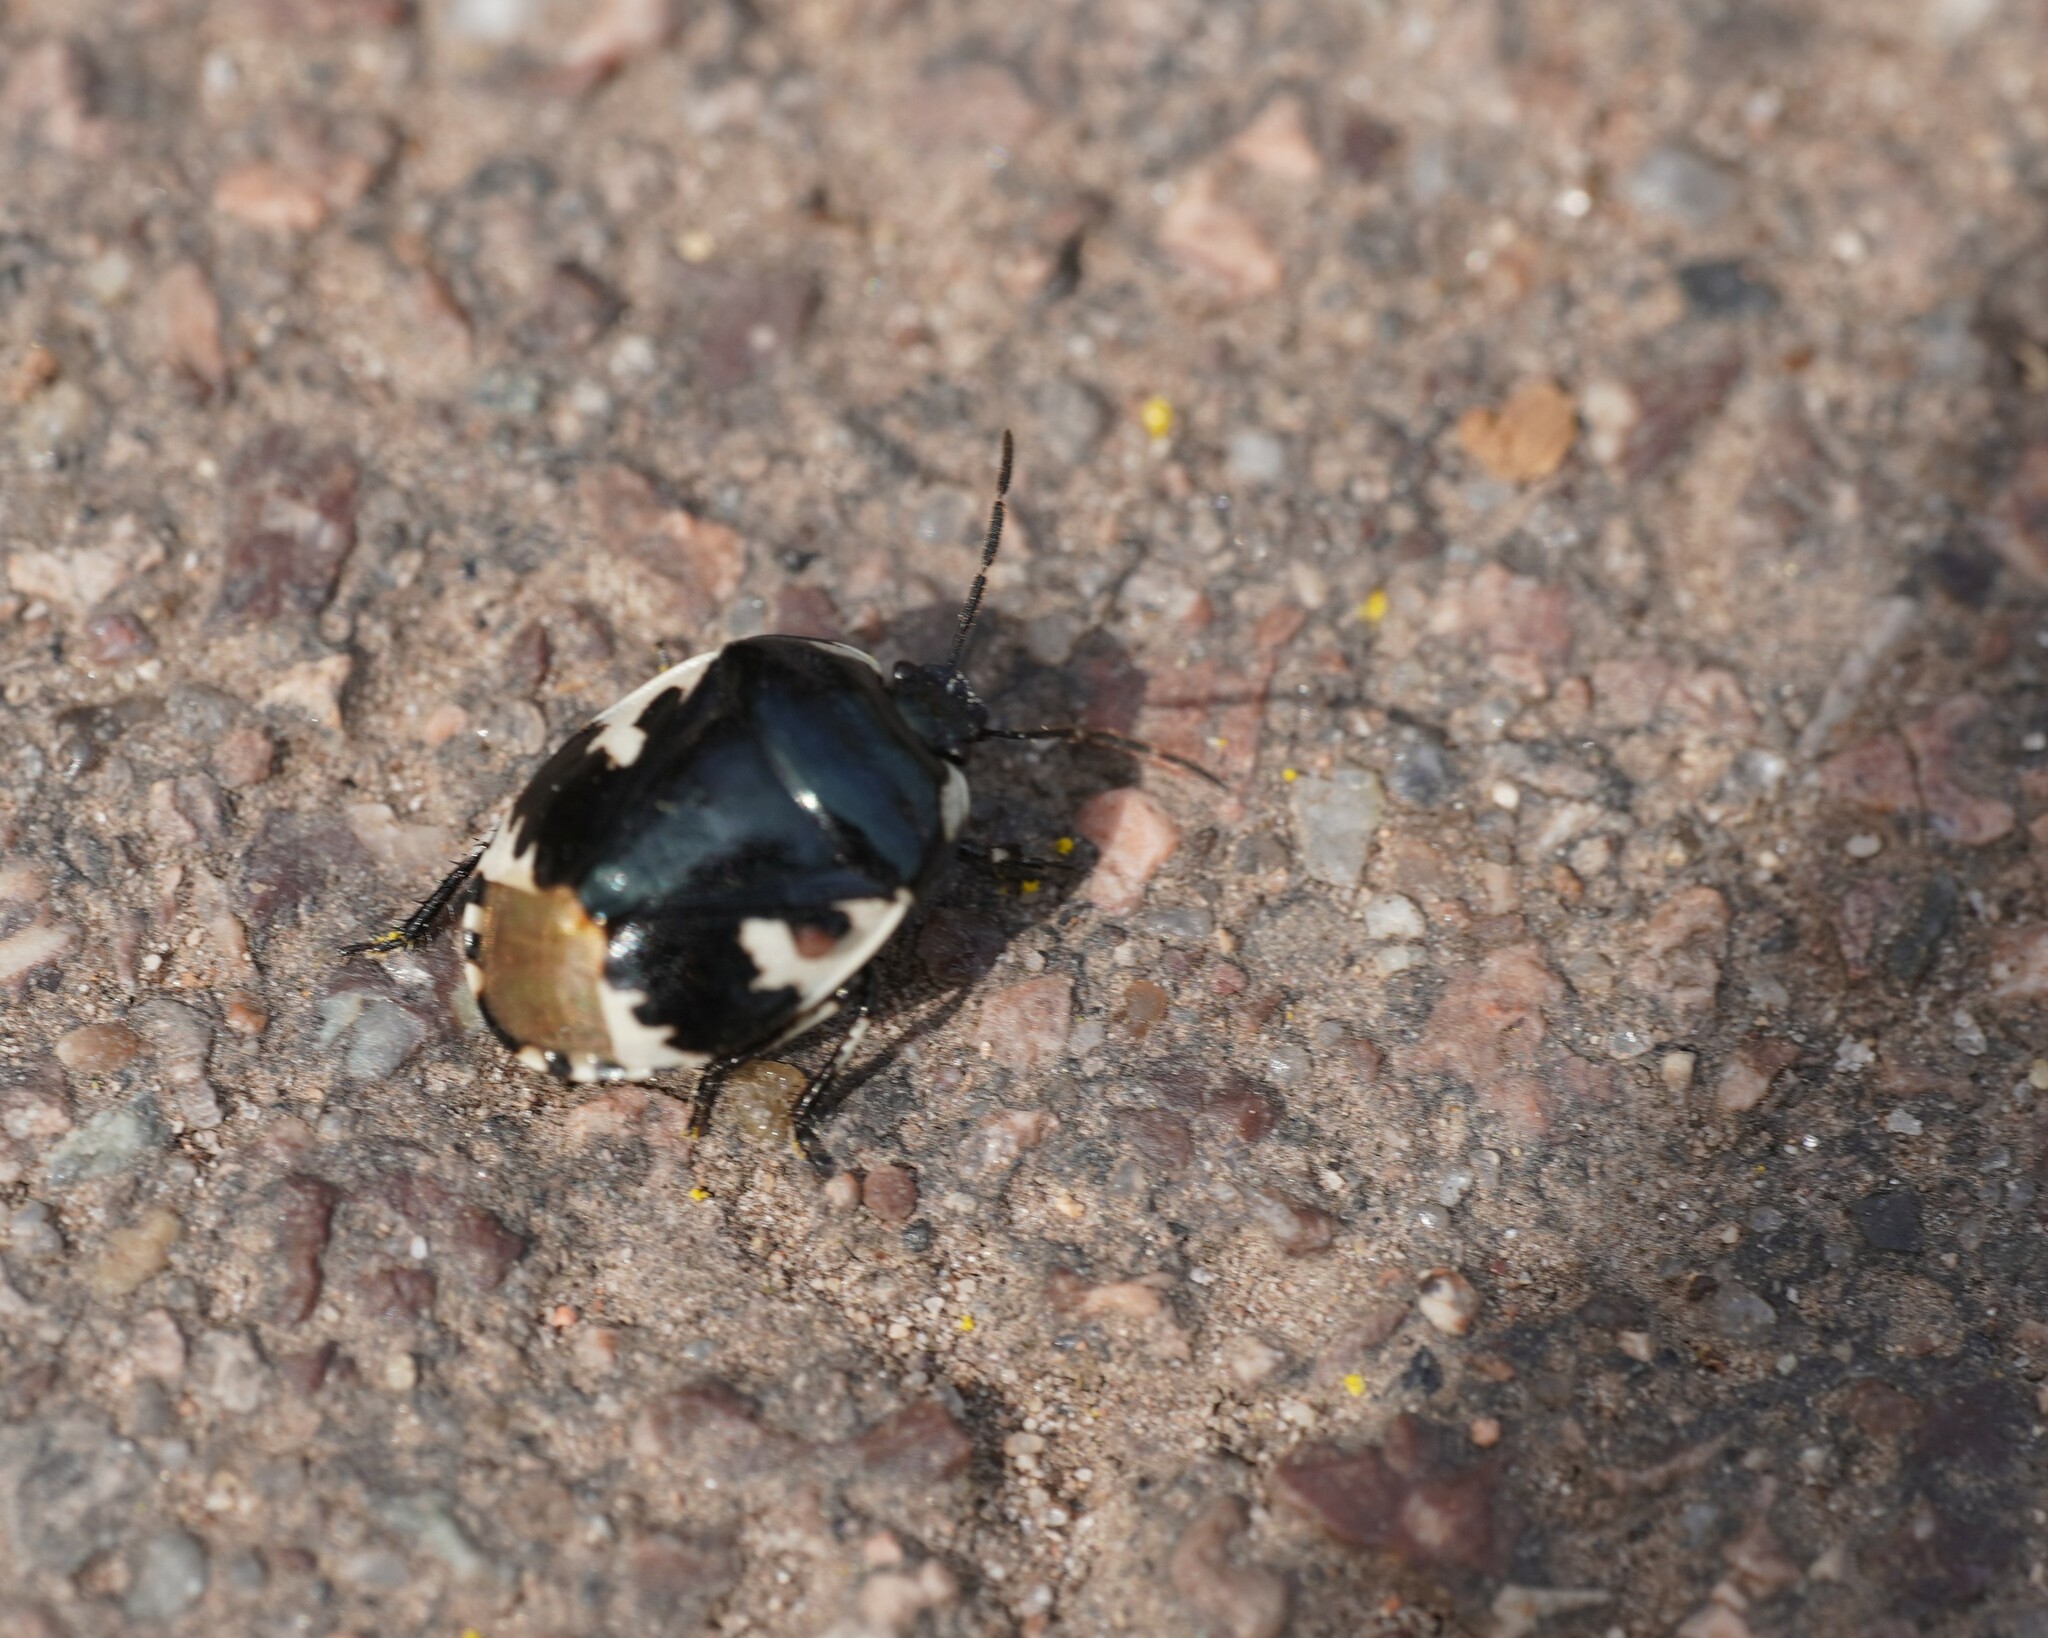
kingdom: Animalia
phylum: Arthropoda
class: Insecta
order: Hemiptera
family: Cydnidae
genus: Tritomegas
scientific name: Tritomegas bicolor
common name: Pied shieldbug
